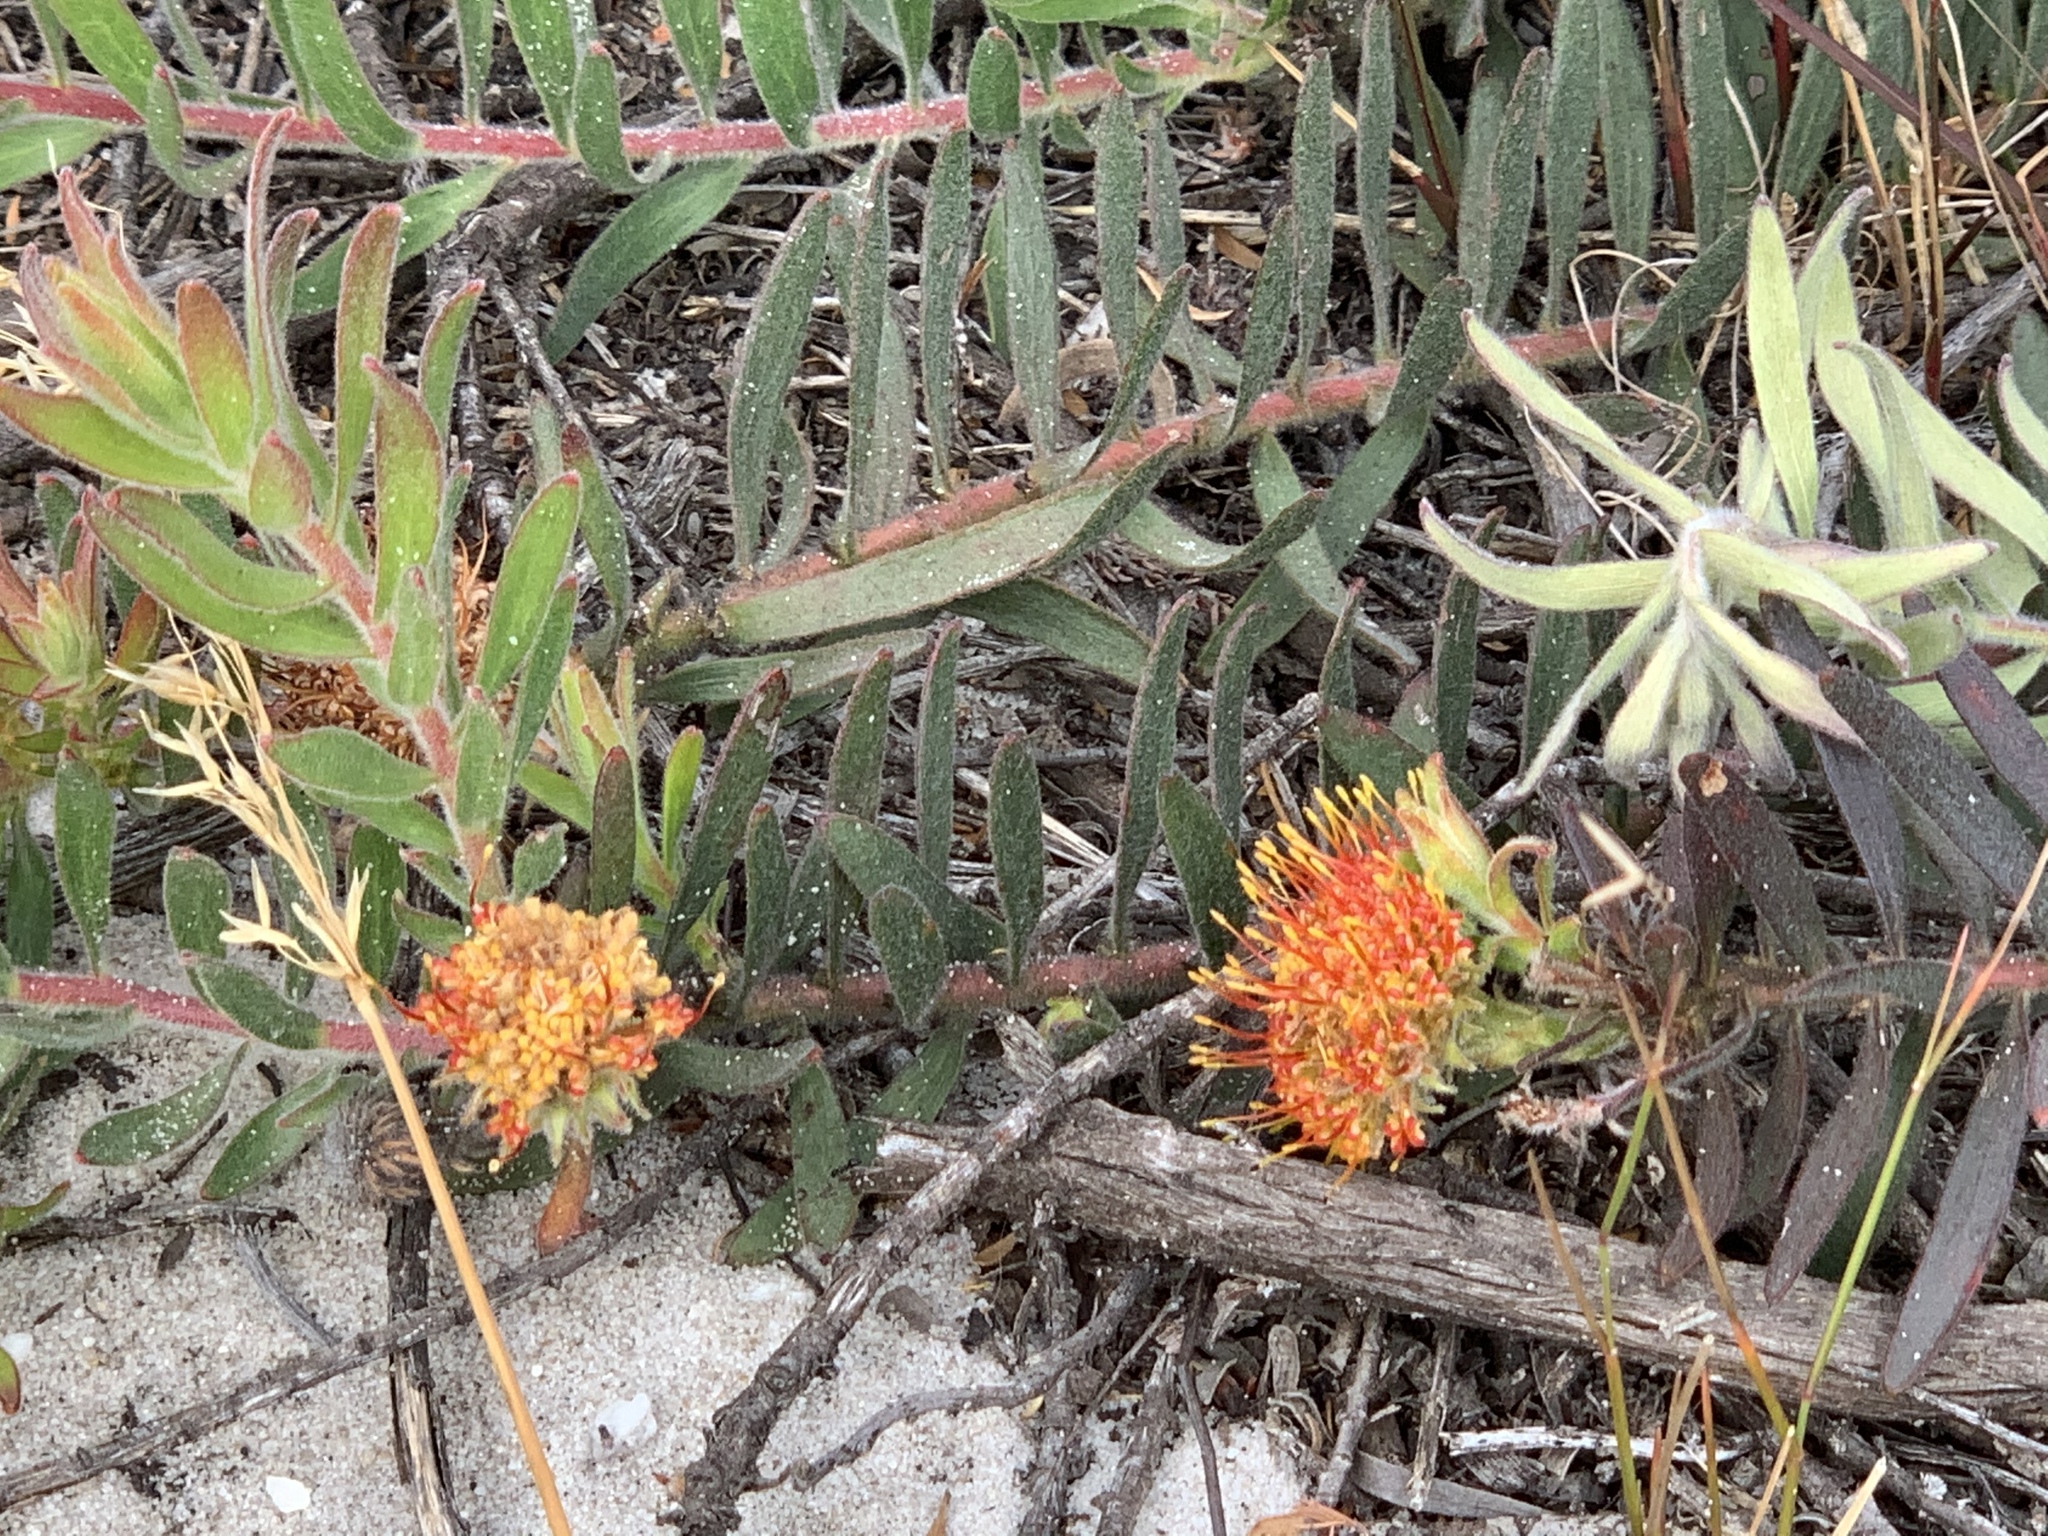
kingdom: Plantae
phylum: Tracheophyta
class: Magnoliopsida
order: Proteales
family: Proteaceae
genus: Leucospermum
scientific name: Leucospermum prostratum
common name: Yellow-trailing pincushion
